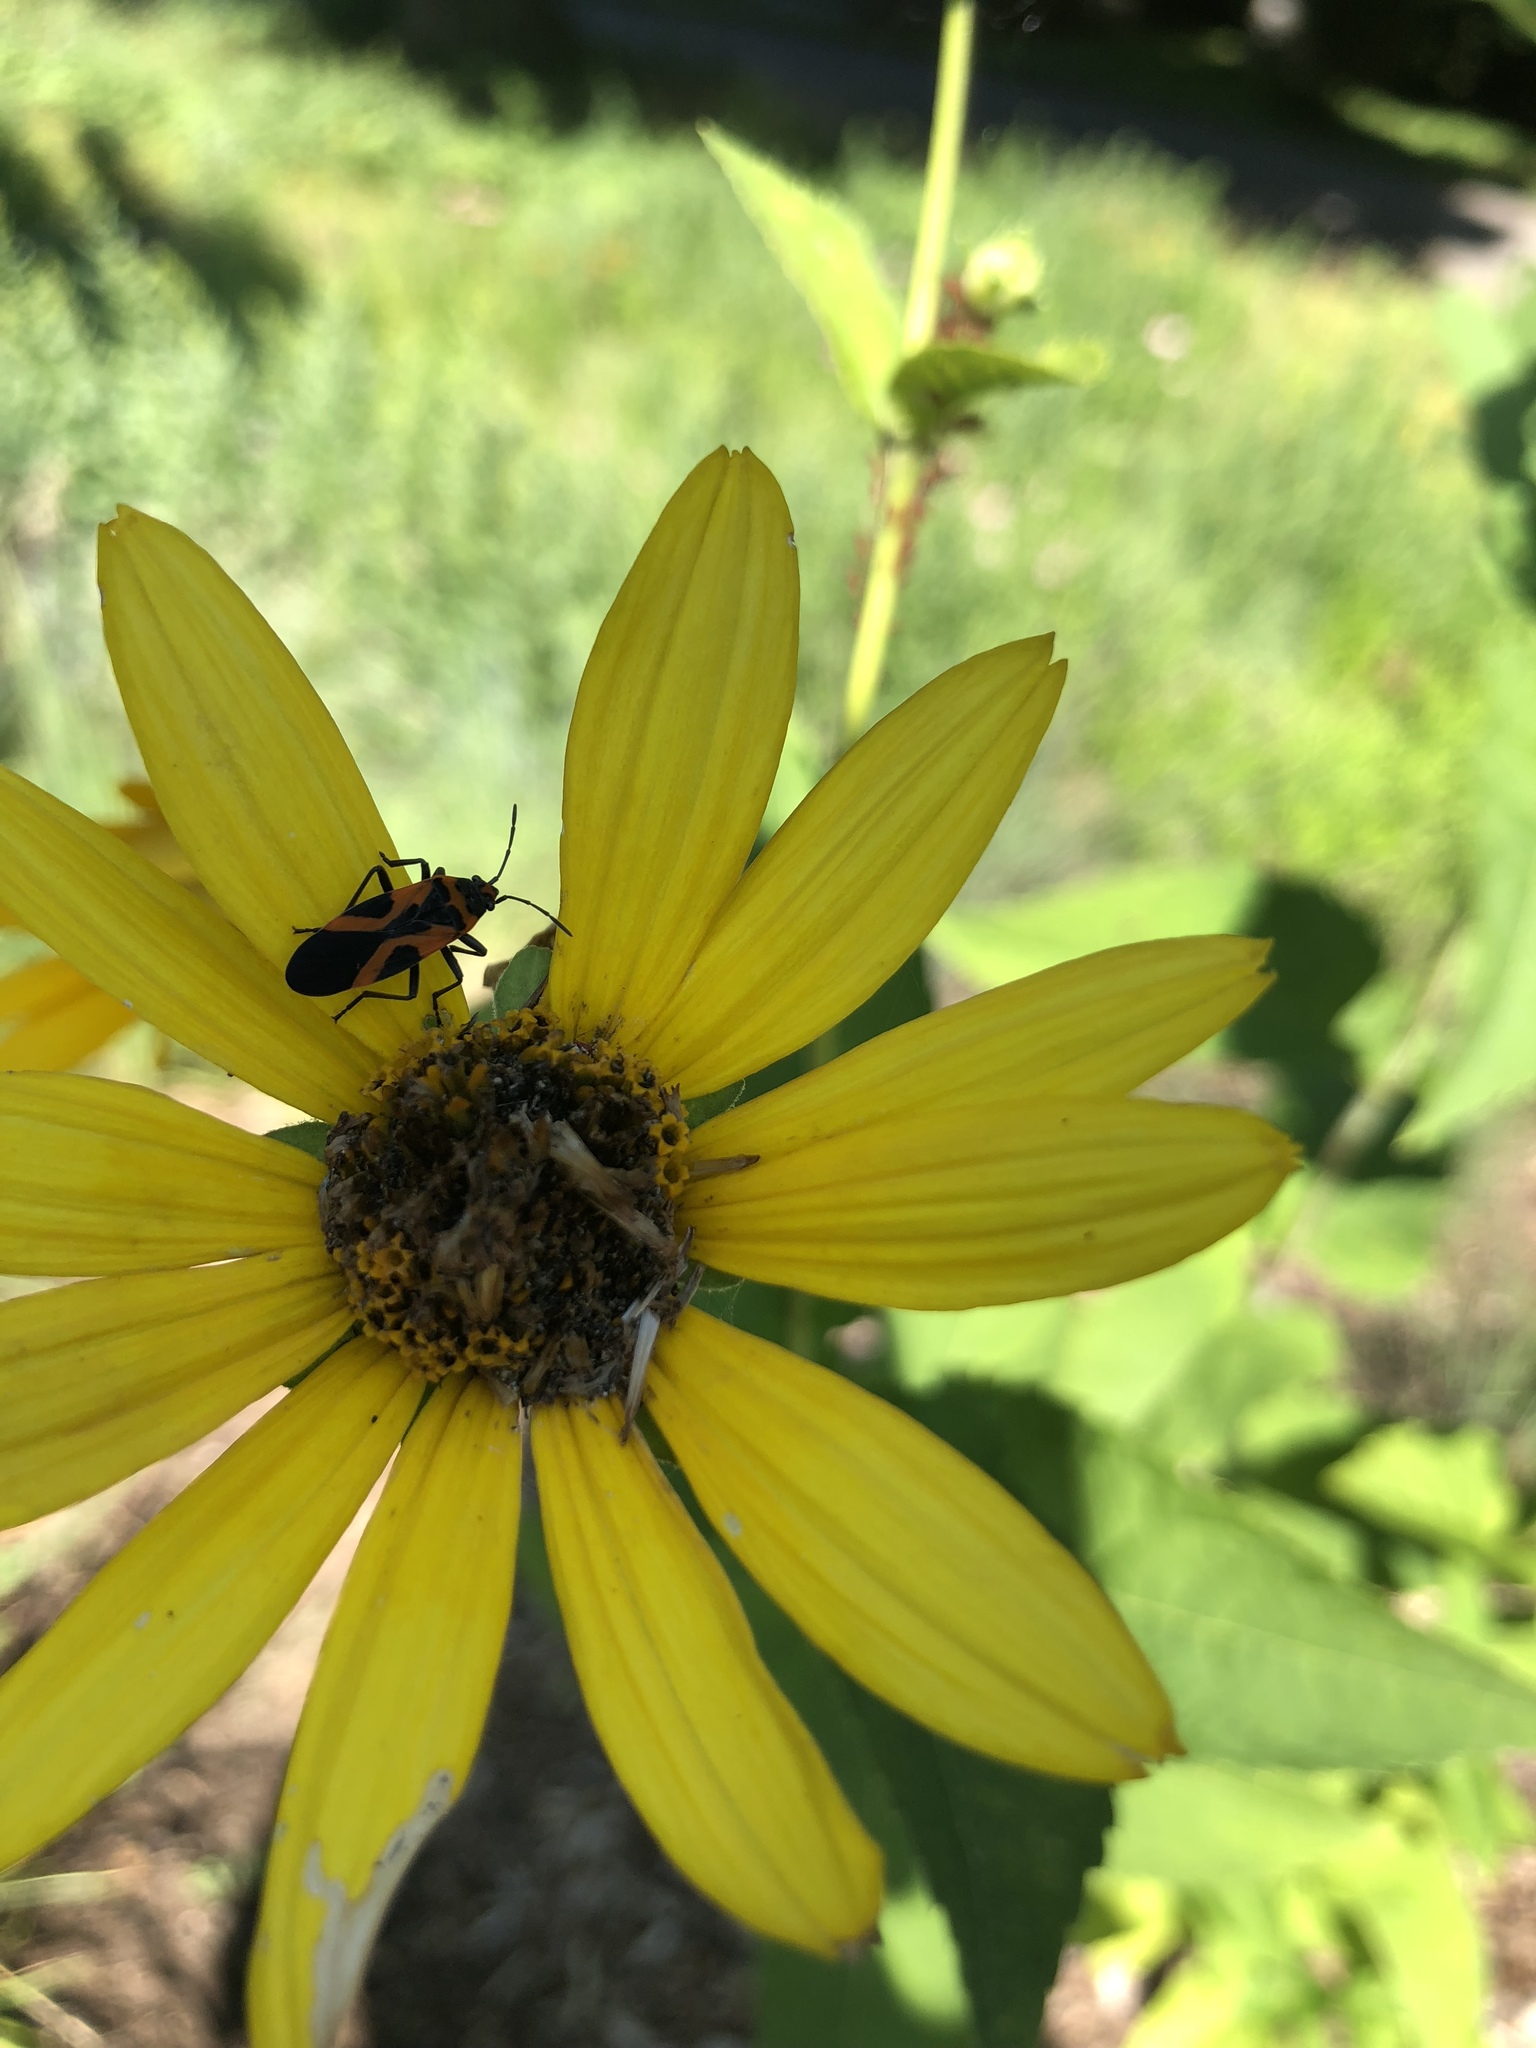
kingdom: Animalia
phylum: Arthropoda
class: Insecta
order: Hemiptera
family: Lygaeidae
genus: Lygaeus
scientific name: Lygaeus turcicus
